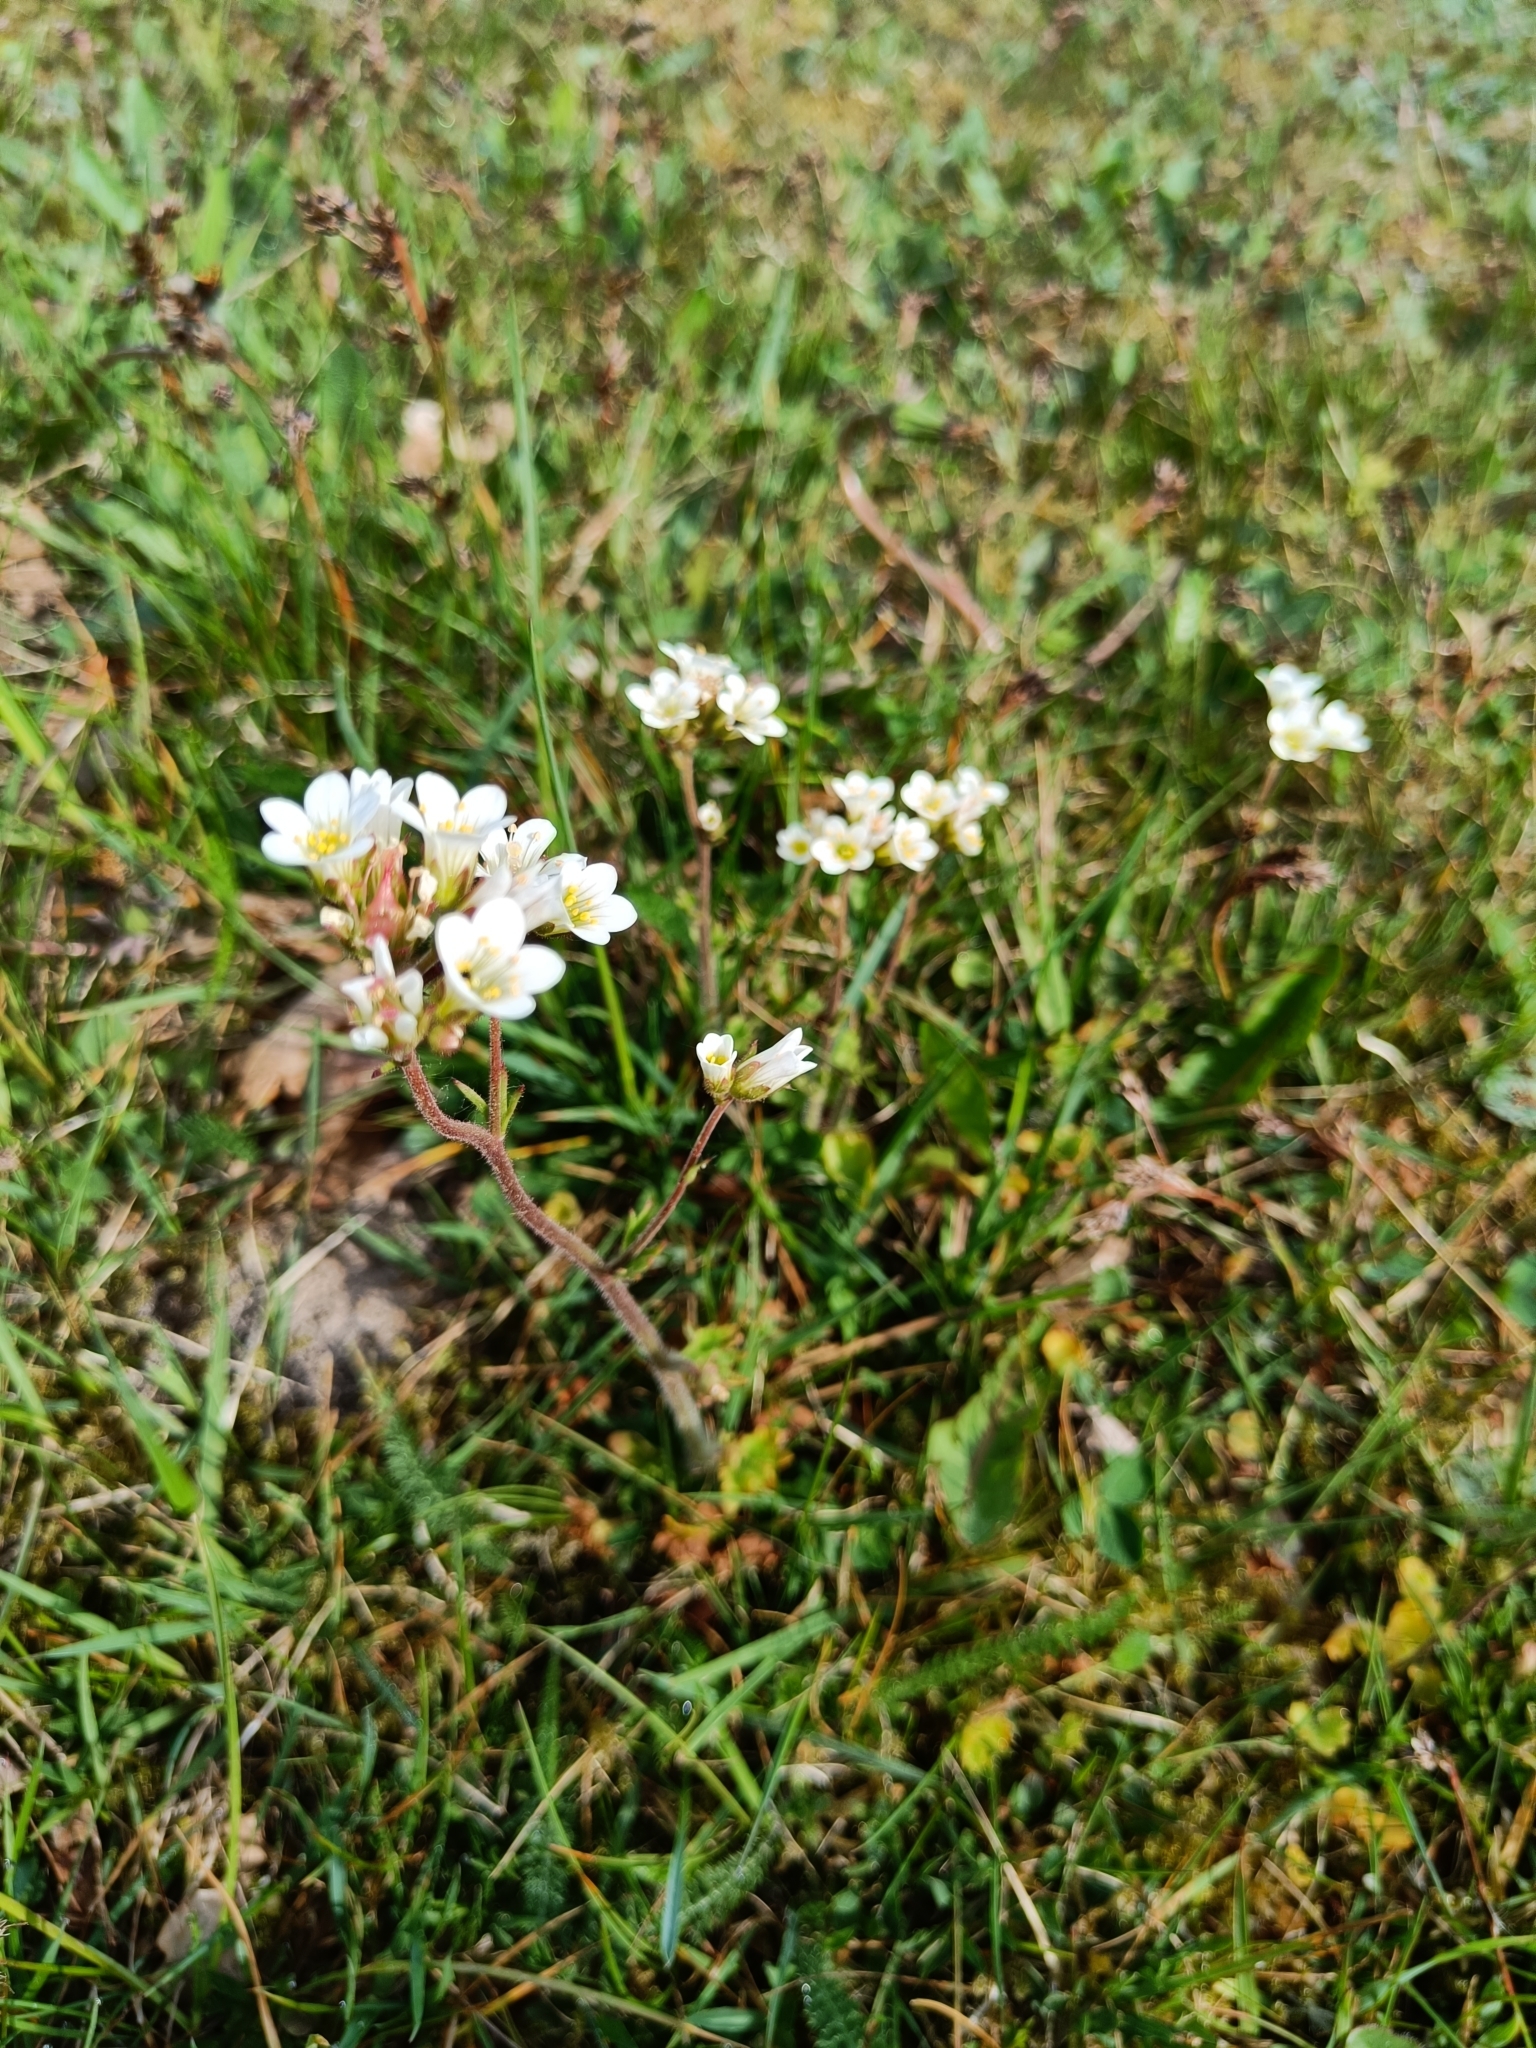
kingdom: Plantae
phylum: Tracheophyta
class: Magnoliopsida
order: Saxifragales
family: Saxifragaceae
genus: Saxifraga
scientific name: Saxifraga granulata
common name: Meadow saxifrage
